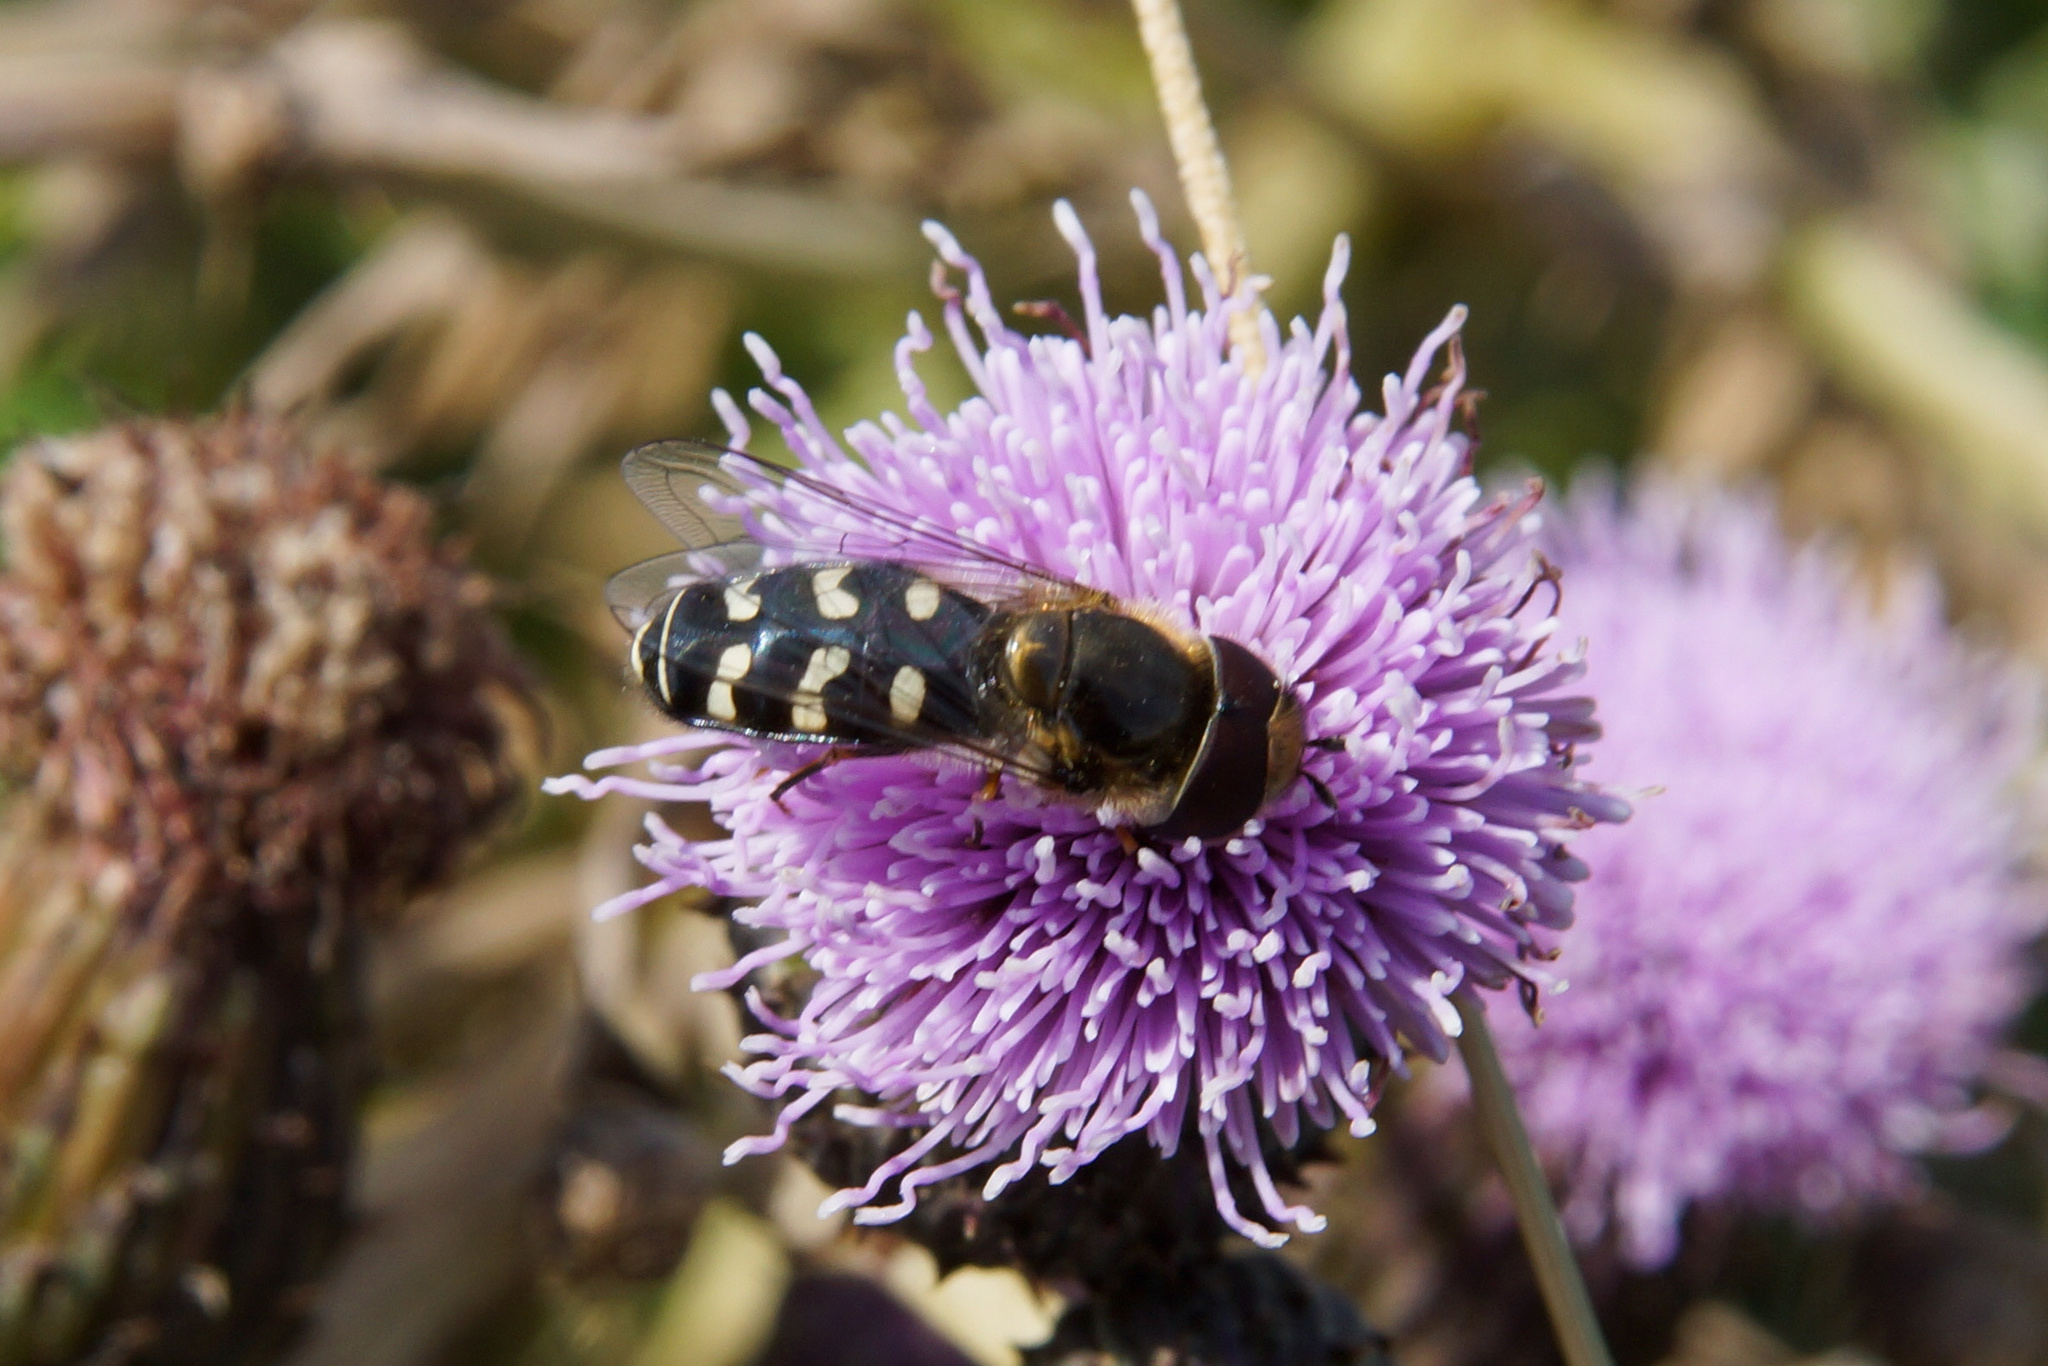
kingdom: Animalia
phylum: Arthropoda
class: Insecta
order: Diptera
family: Syrphidae
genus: Scaeva
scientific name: Scaeva pyrastri
